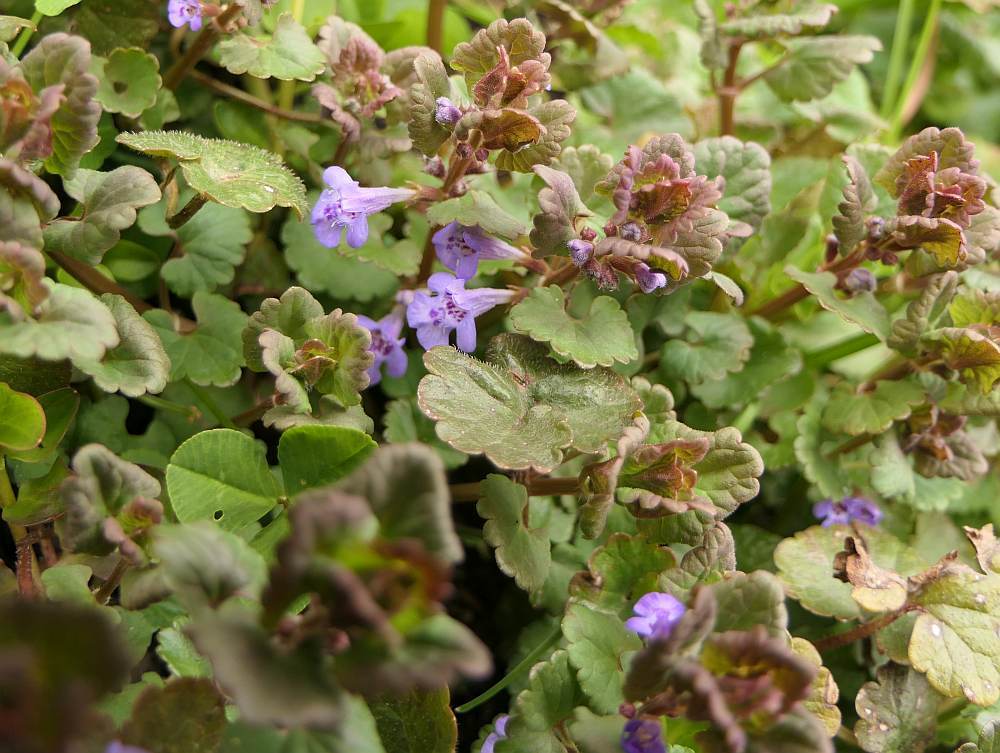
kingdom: Plantae
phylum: Tracheophyta
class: Magnoliopsida
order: Lamiales
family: Lamiaceae
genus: Glechoma
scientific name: Glechoma hederacea
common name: Ground ivy
